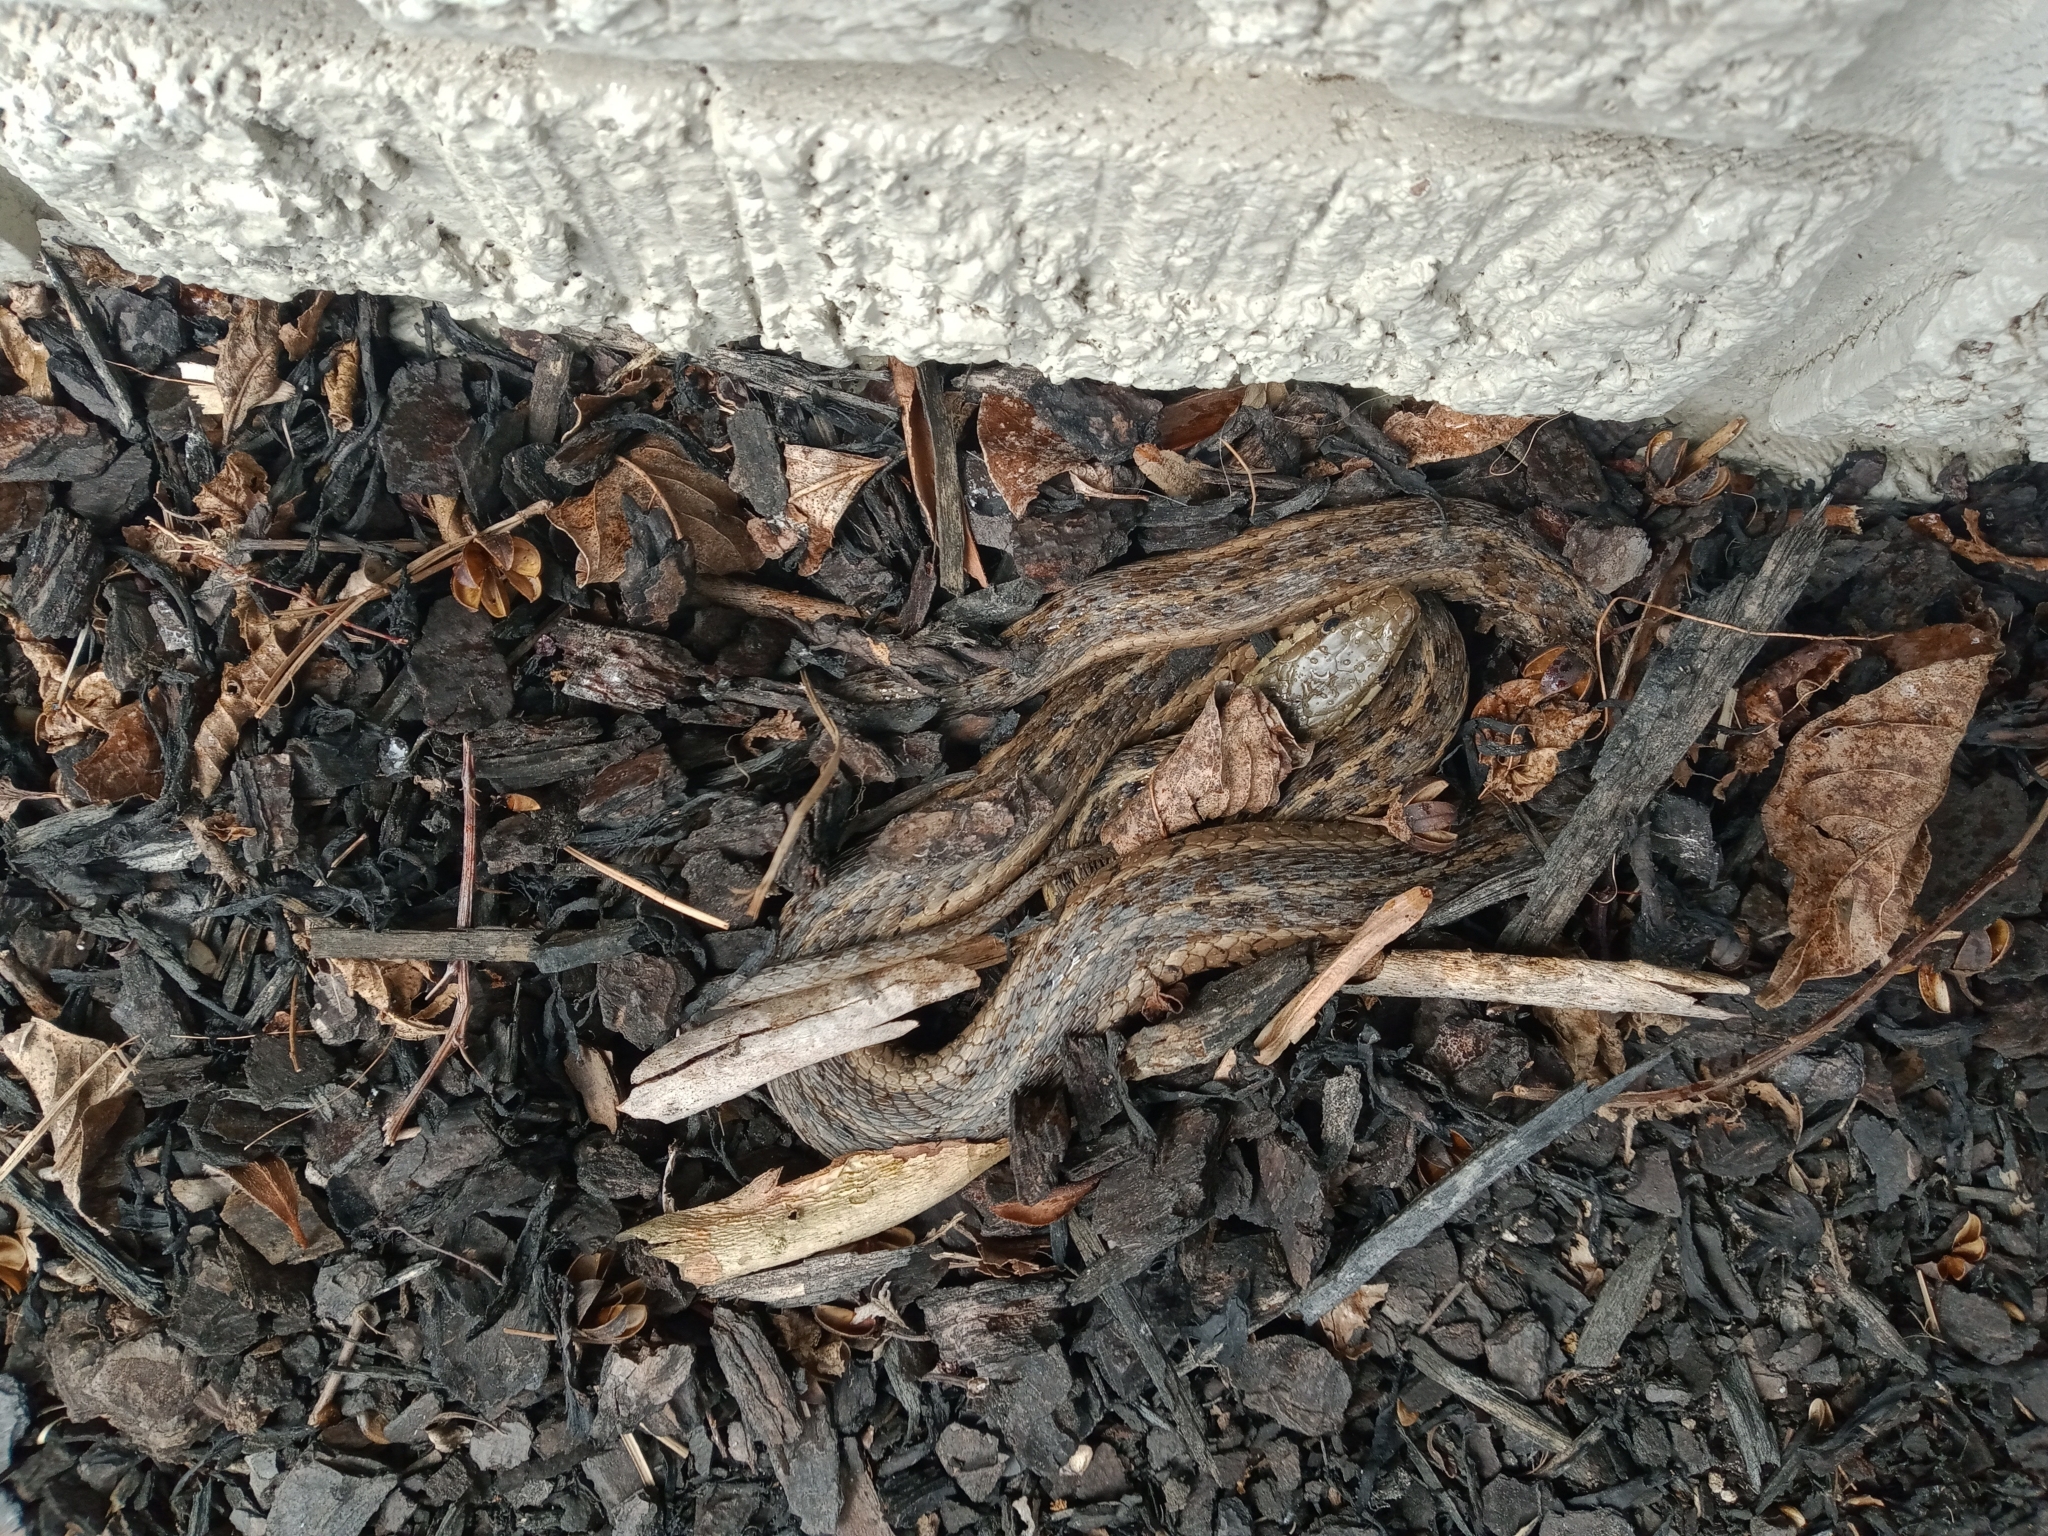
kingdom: Animalia
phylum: Chordata
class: Squamata
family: Colubridae
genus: Thamnophis
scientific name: Thamnophis sirtalis
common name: Common garter snake
